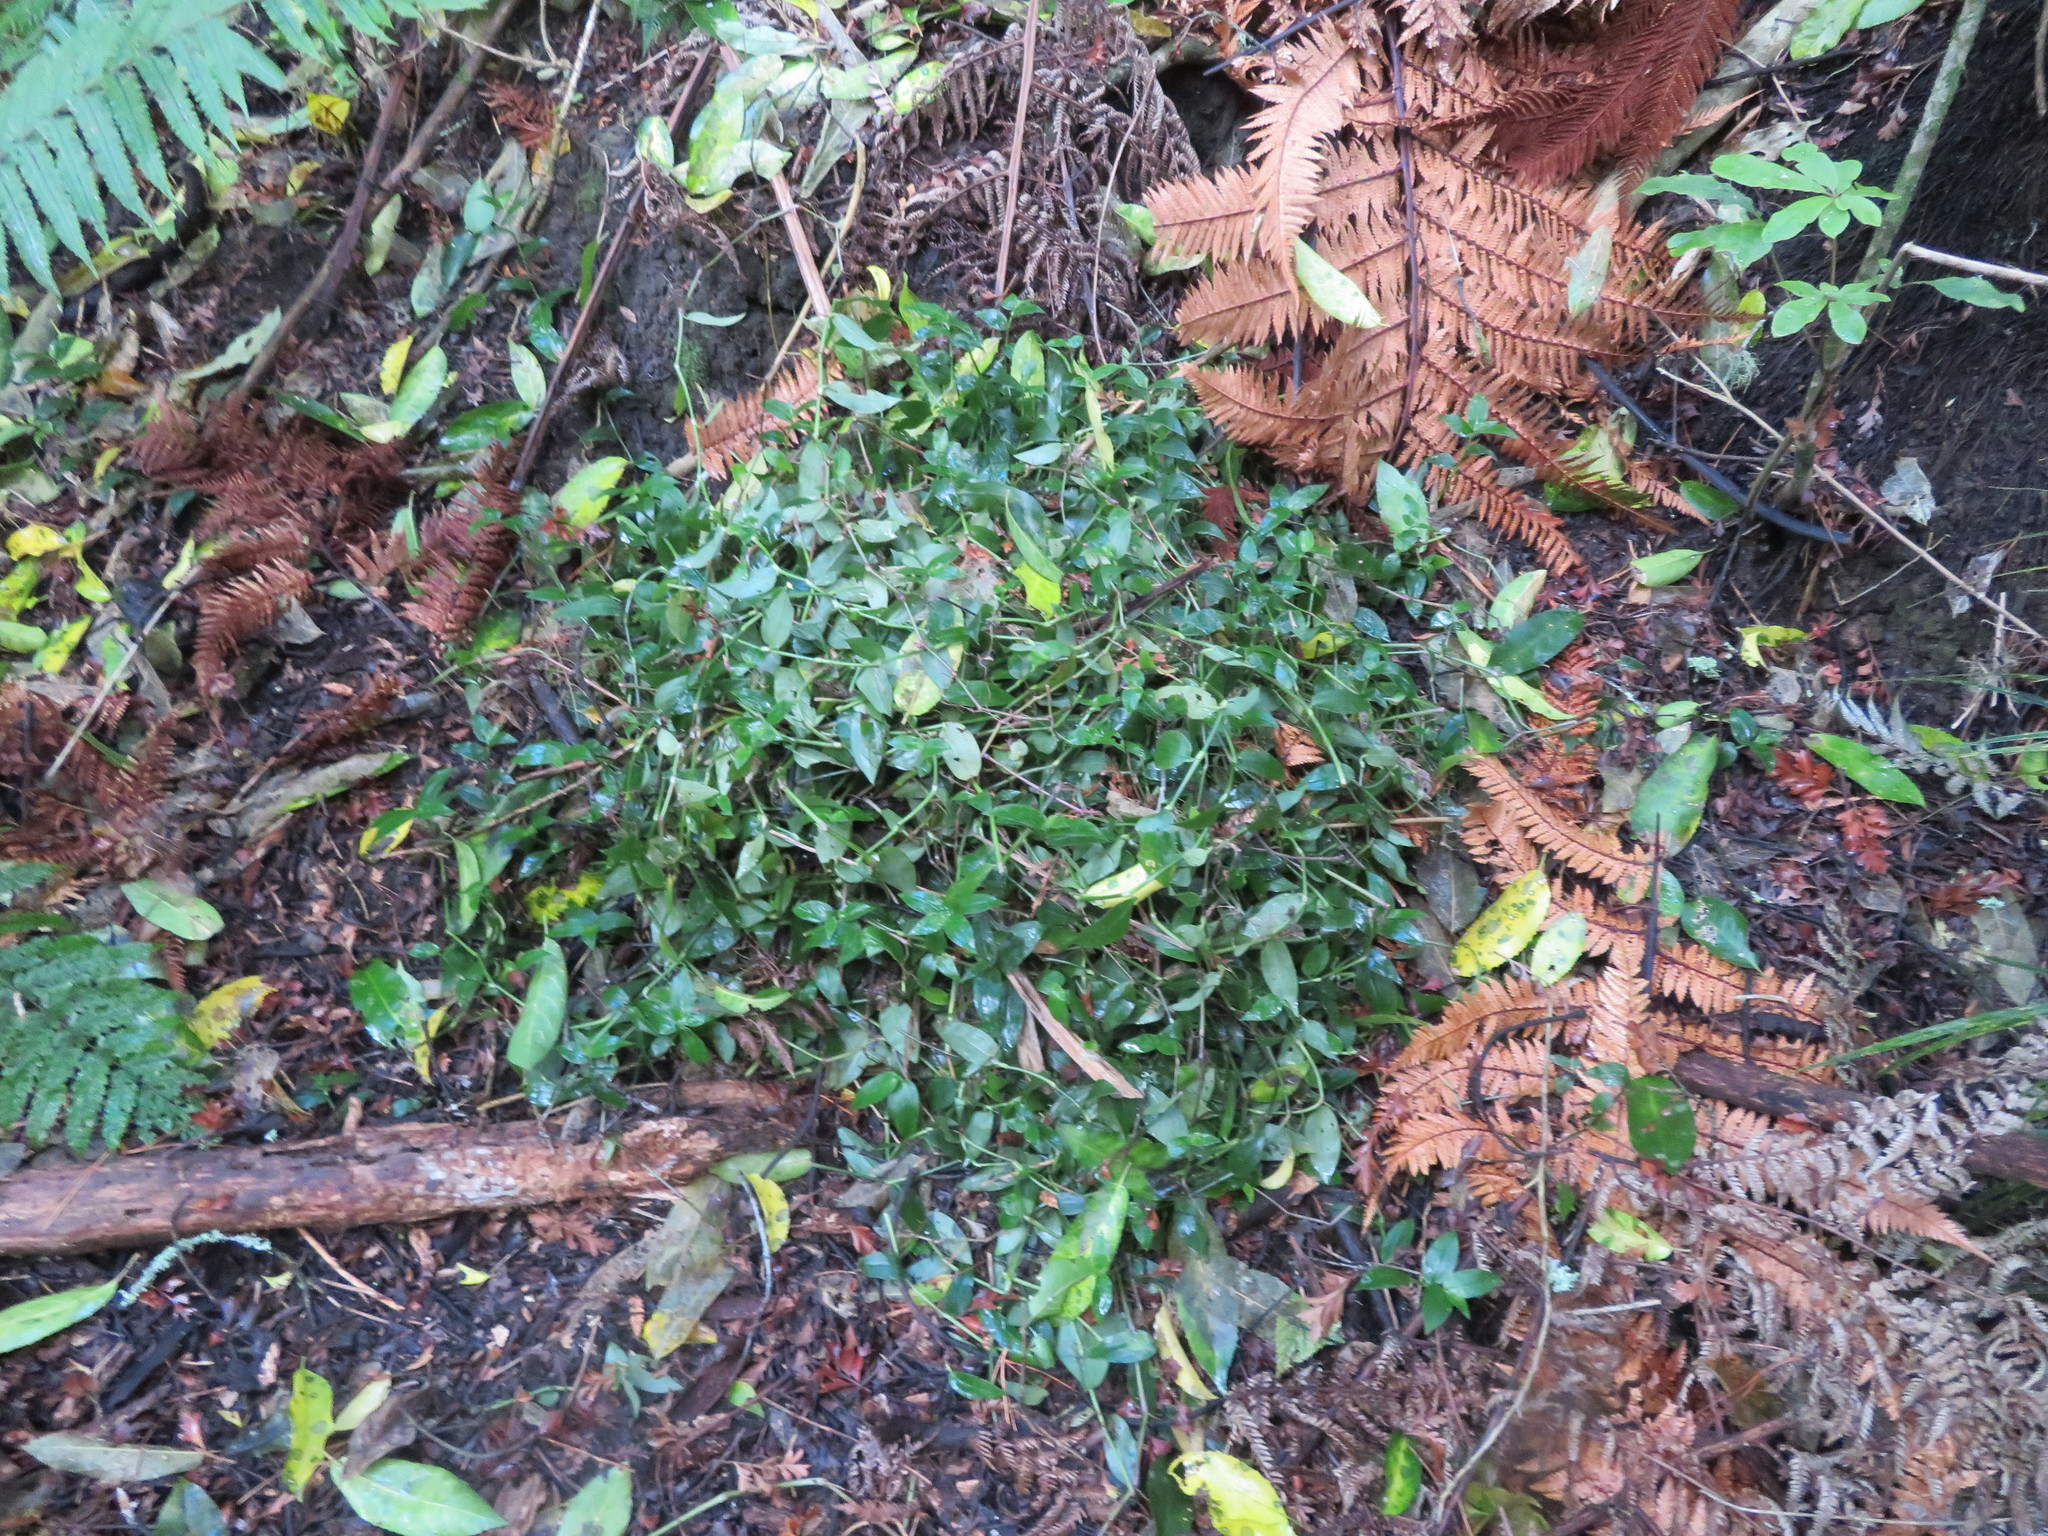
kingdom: Plantae
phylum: Tracheophyta
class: Liliopsida
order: Commelinales
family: Commelinaceae
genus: Tradescantia
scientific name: Tradescantia fluminensis
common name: Wandering-jew
